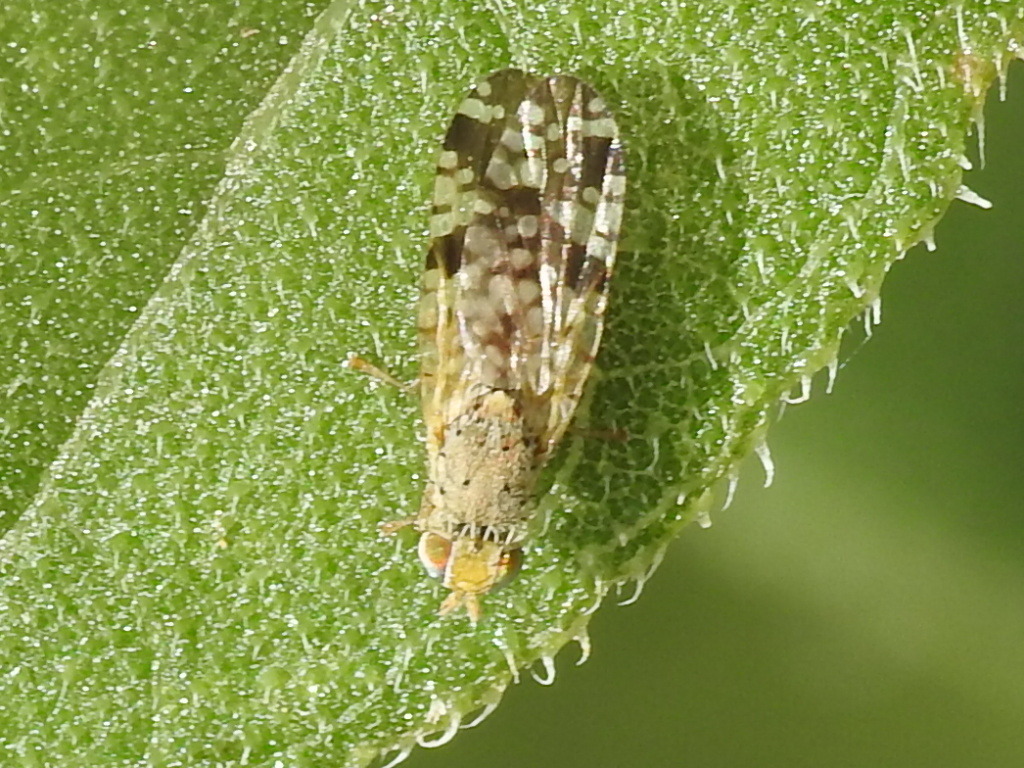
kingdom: Animalia
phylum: Arthropoda
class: Insecta
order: Diptera
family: Tephritidae
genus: Neotephritis
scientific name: Neotephritis finalis
